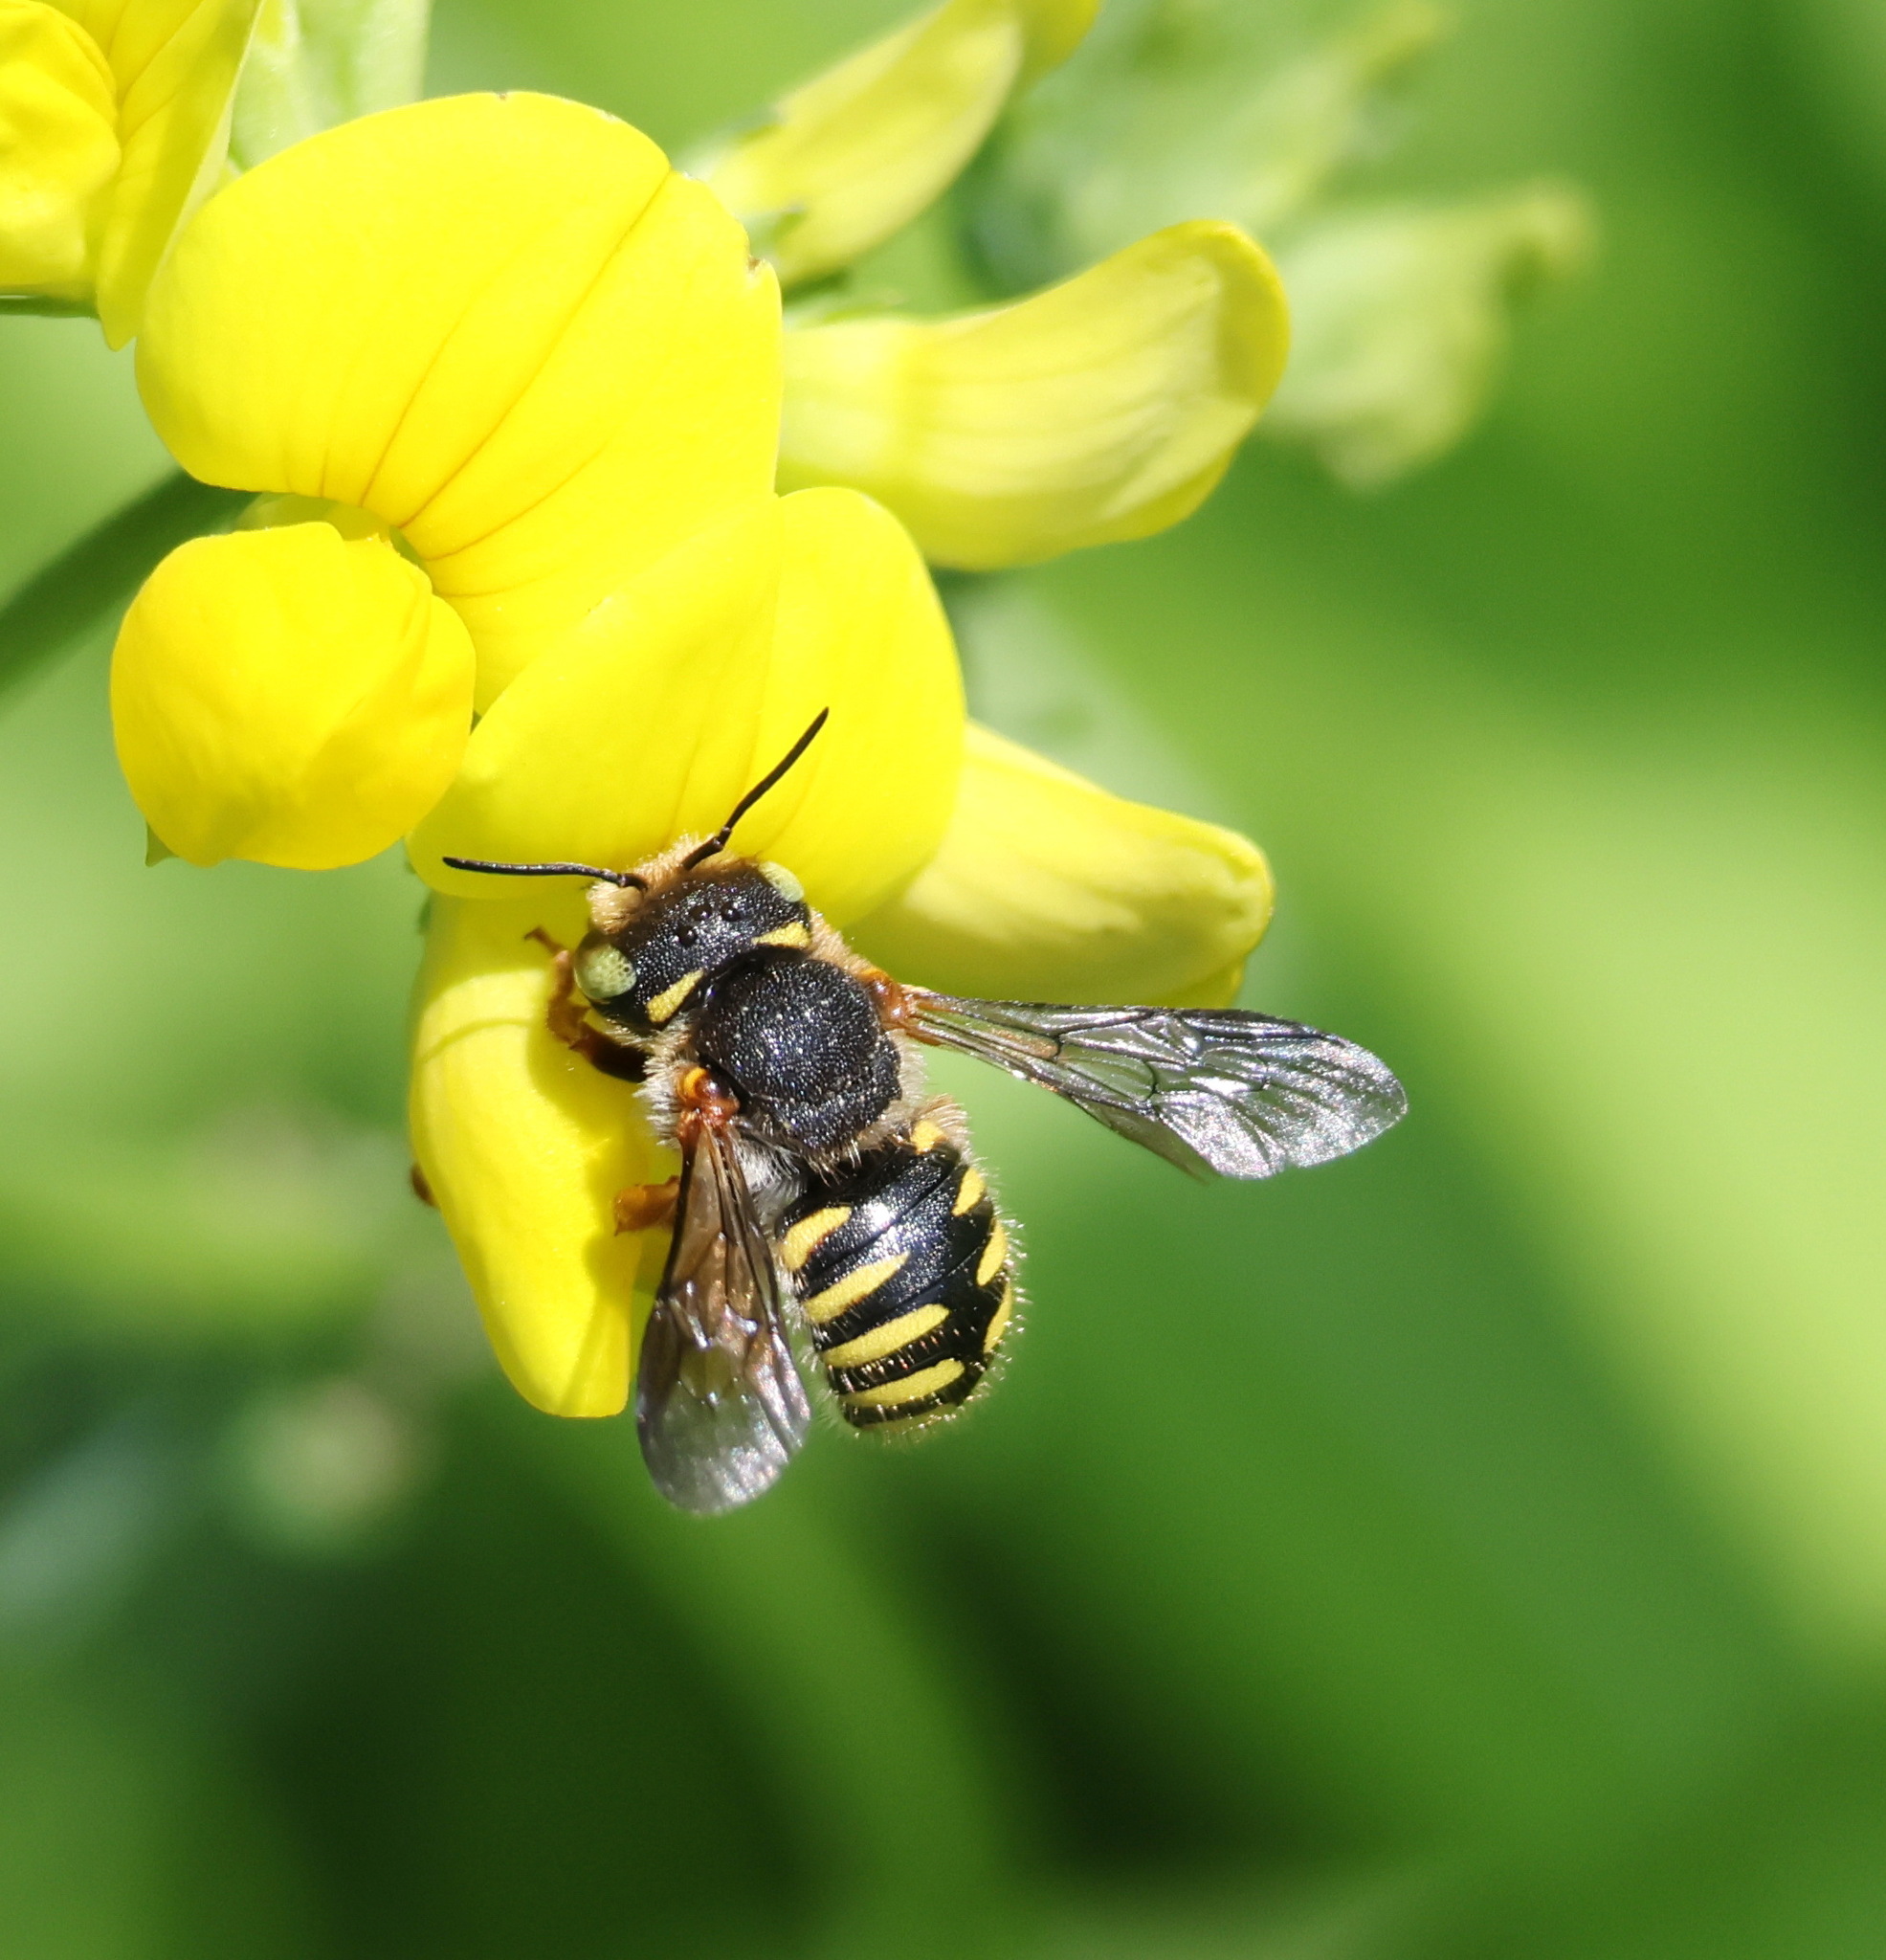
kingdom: Animalia
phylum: Arthropoda
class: Insecta
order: Hymenoptera
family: Megachilidae
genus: Anthidium
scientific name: Anthidium oblongatum
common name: Oblong wool carder bee
